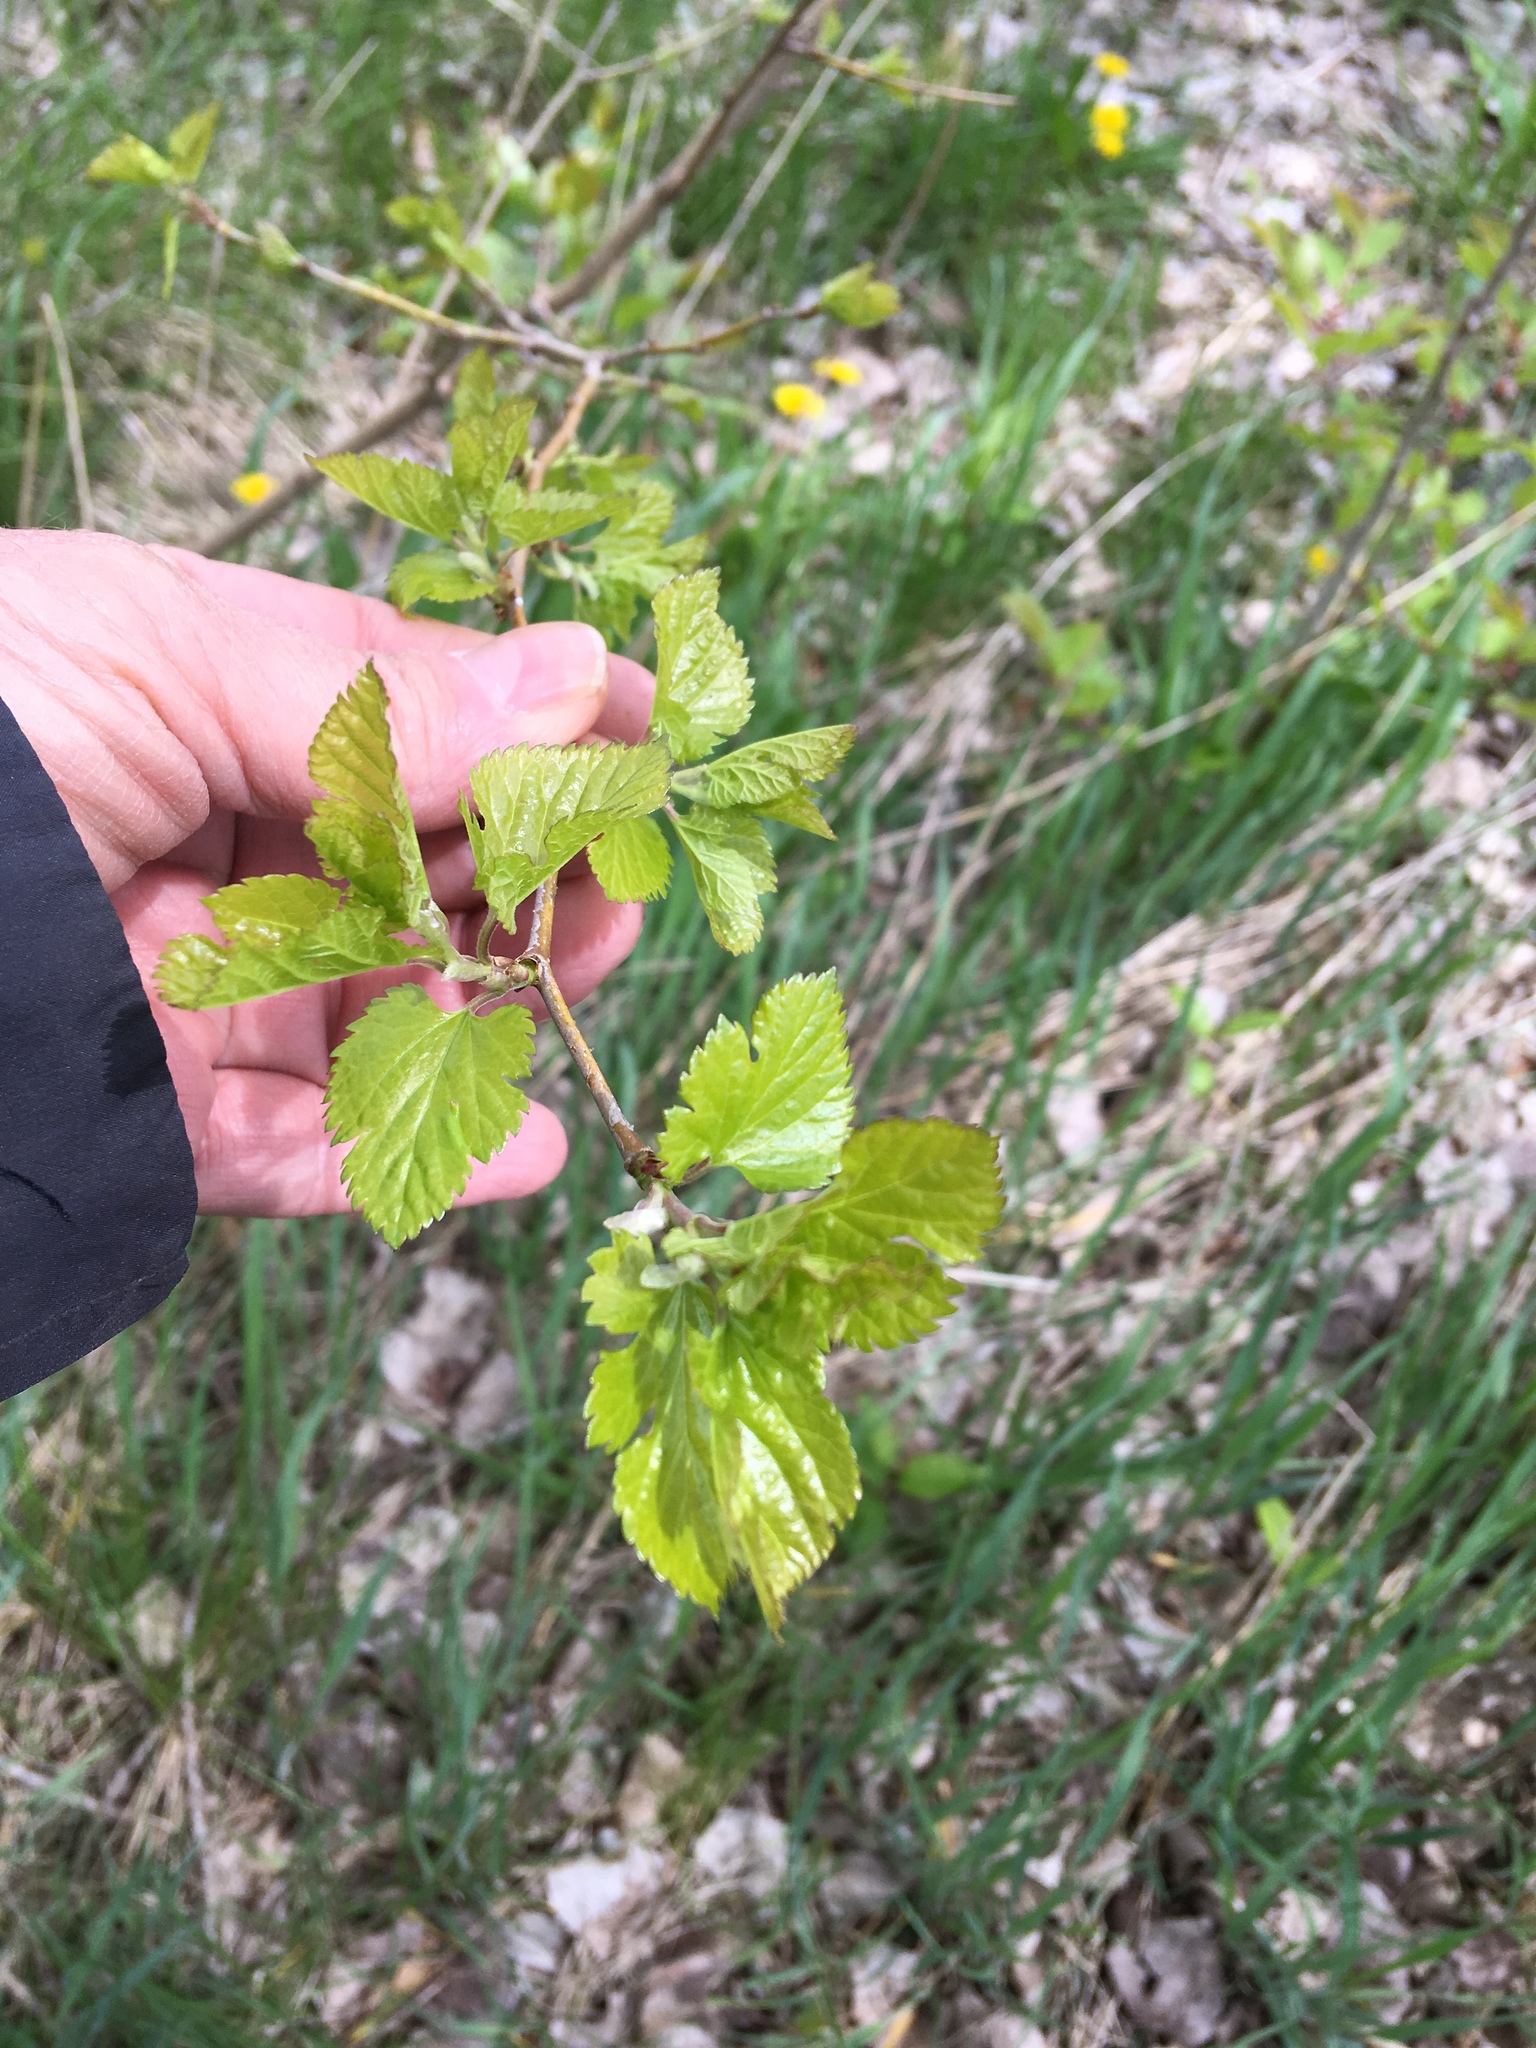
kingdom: Plantae
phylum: Tracheophyta
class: Magnoliopsida
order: Rosales
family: Moraceae
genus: Morus
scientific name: Morus alba
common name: White mulberry
